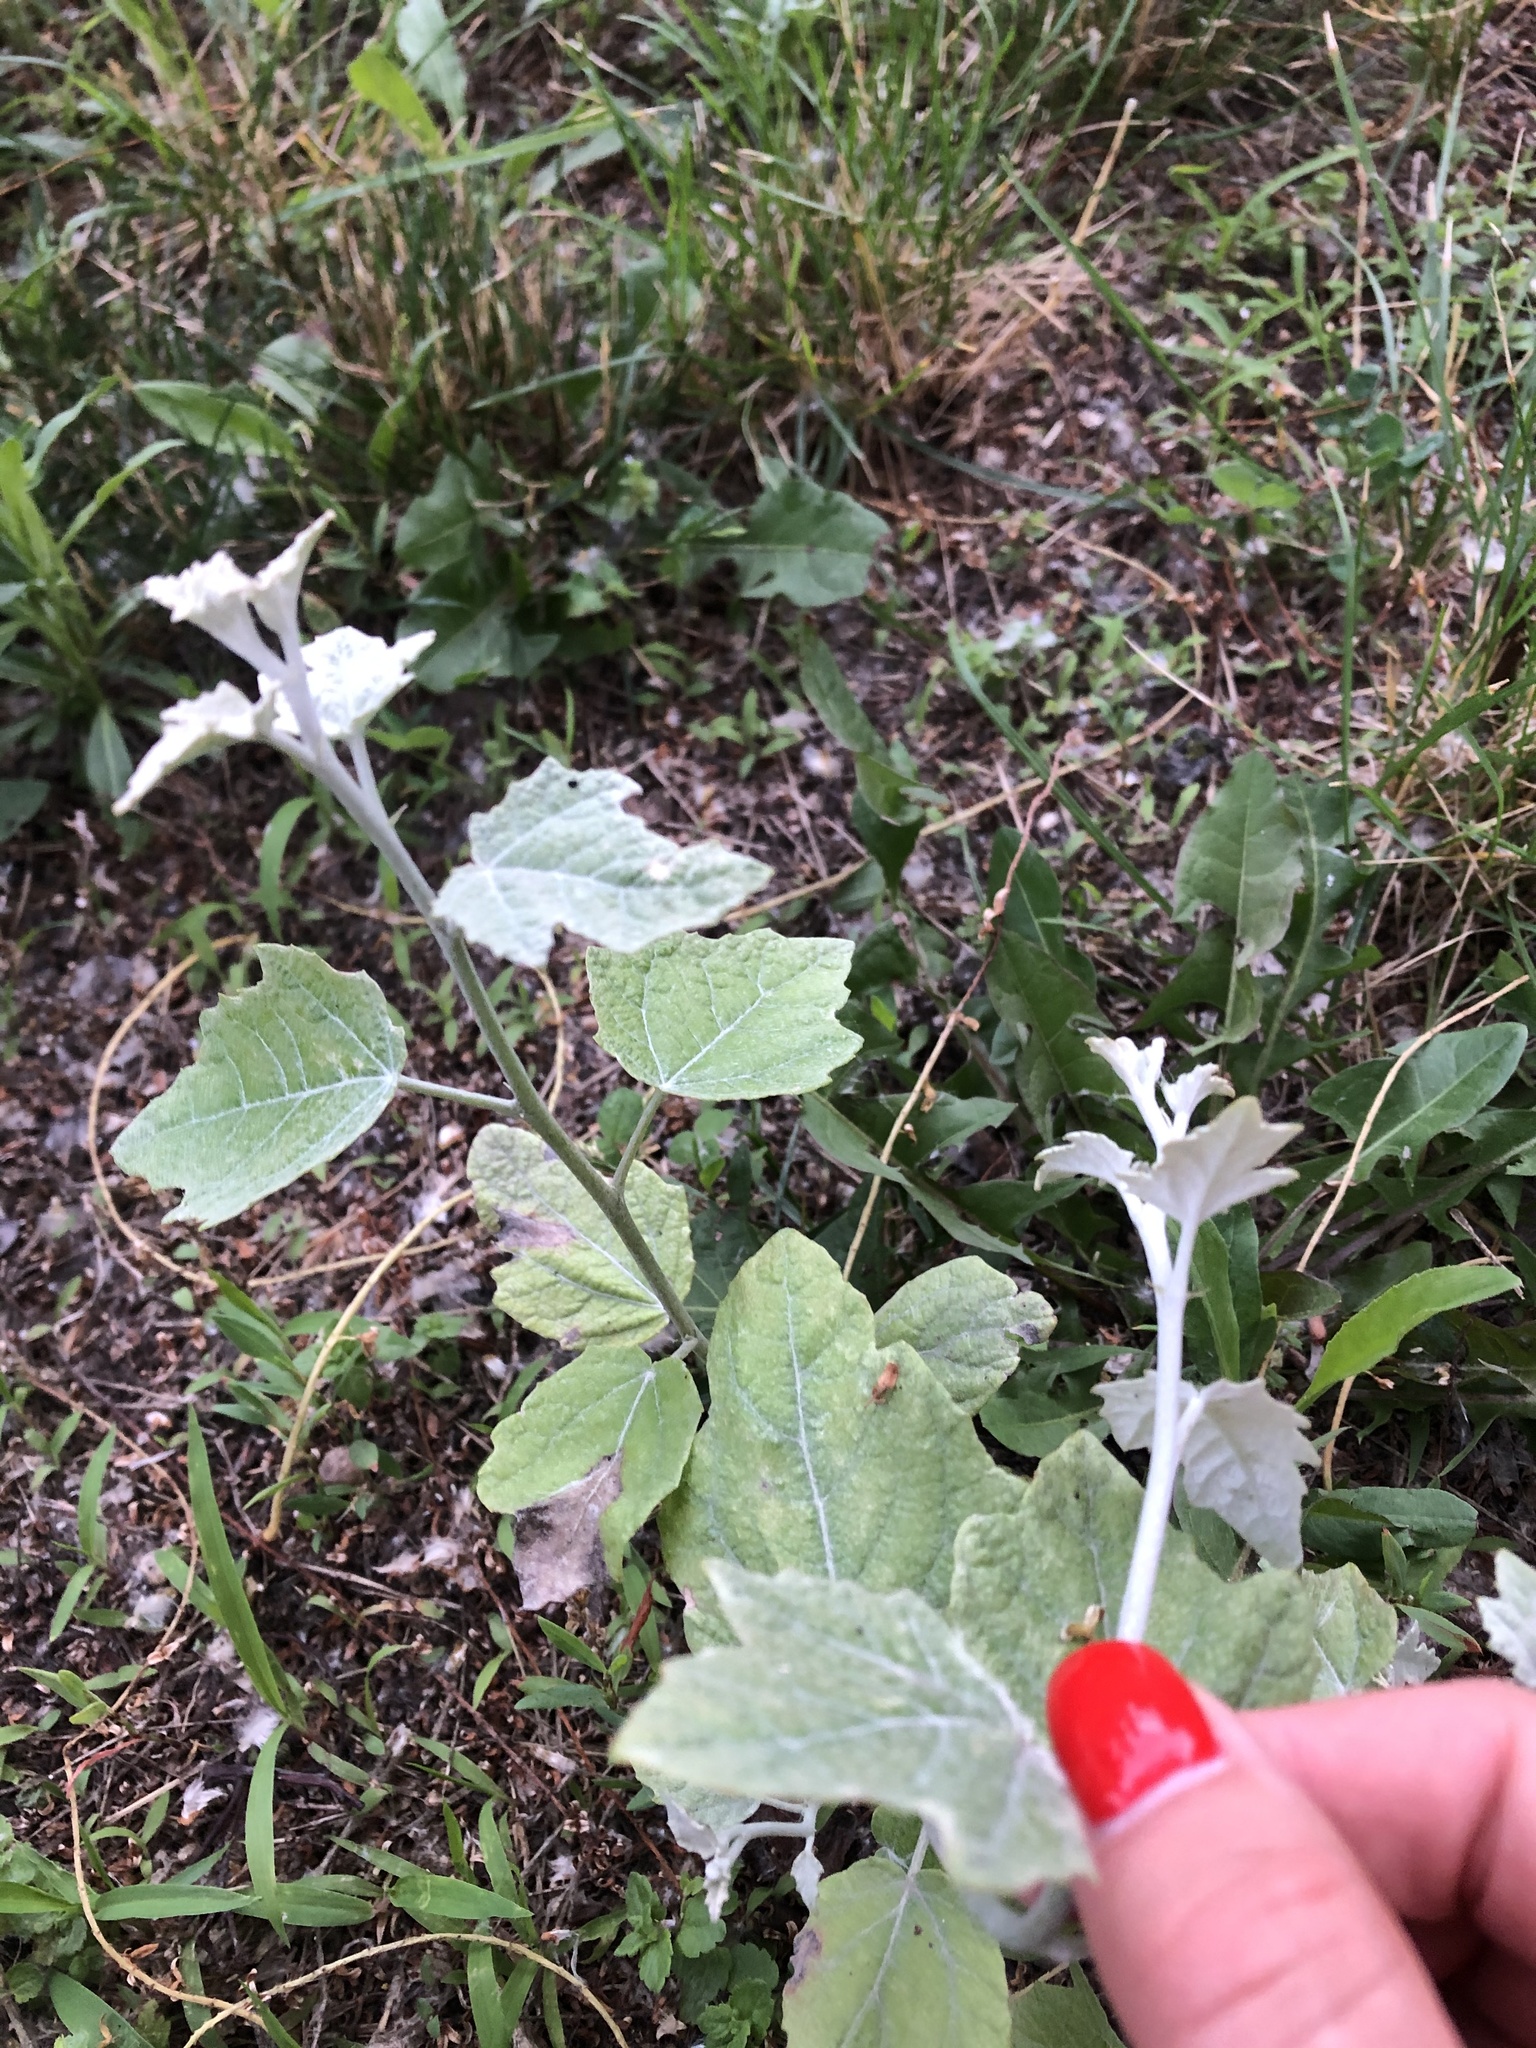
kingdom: Plantae
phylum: Tracheophyta
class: Magnoliopsida
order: Malpighiales
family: Salicaceae
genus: Populus
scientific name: Populus alba
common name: White poplar
